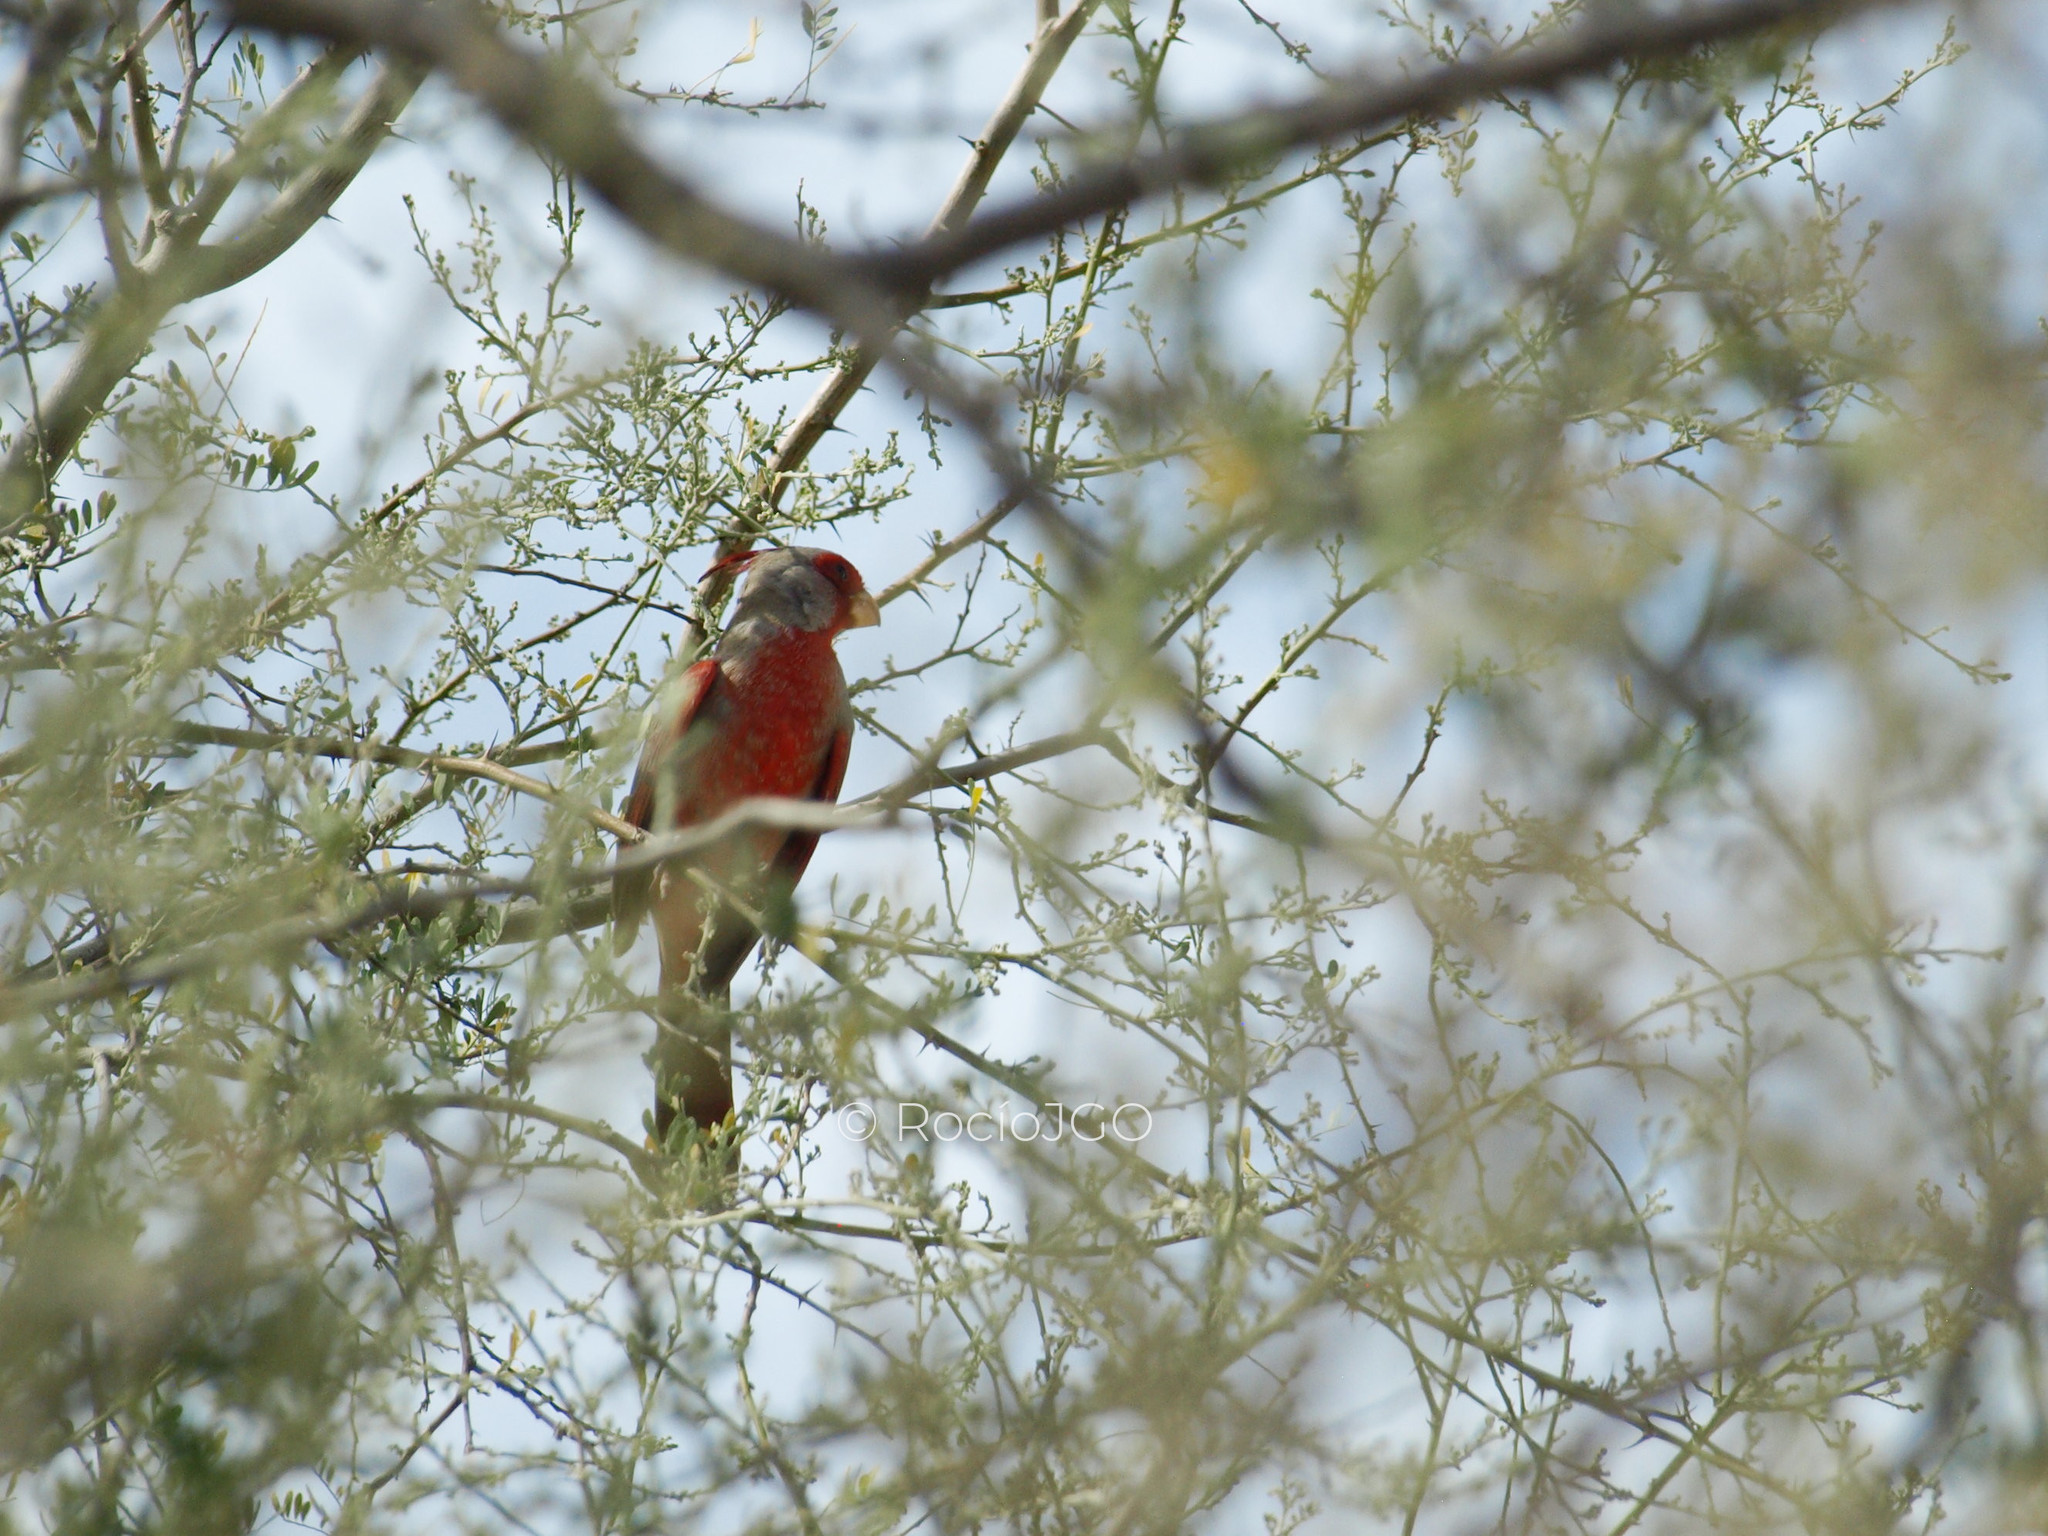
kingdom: Animalia
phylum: Chordata
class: Aves
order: Passeriformes
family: Cardinalidae
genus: Cardinalis
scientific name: Cardinalis sinuatus
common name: Pyrrhuloxia
